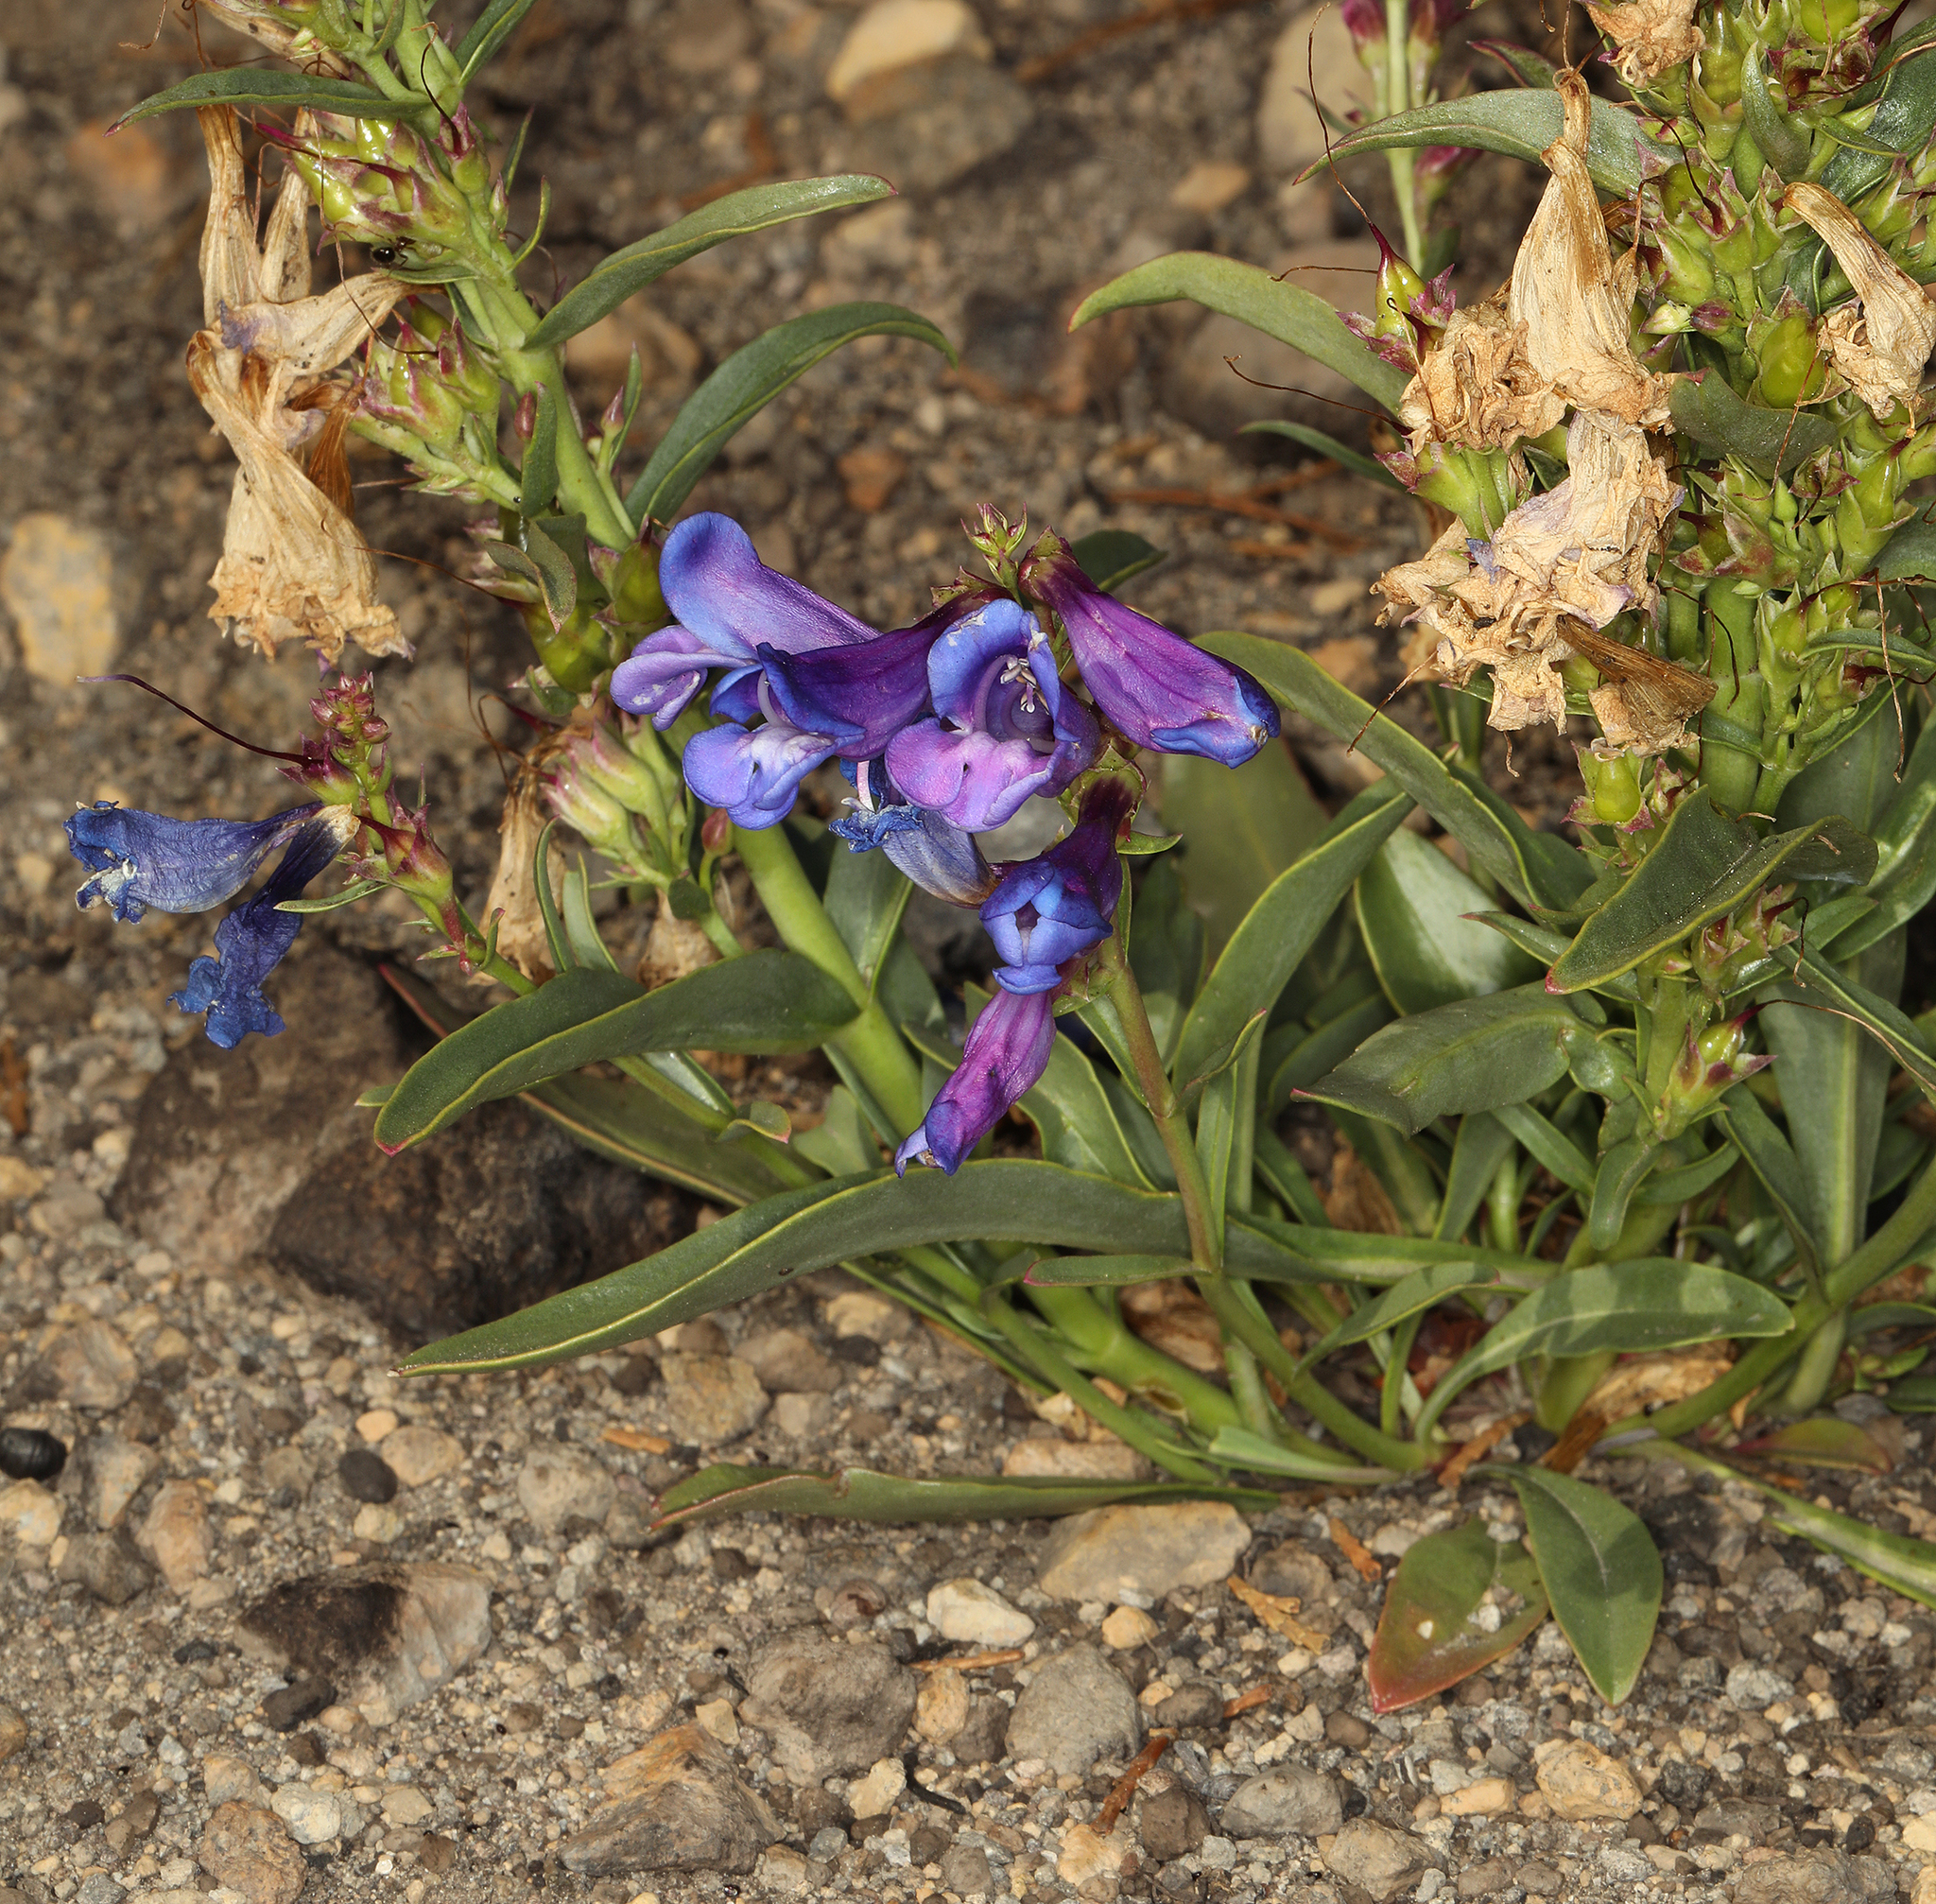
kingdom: Plantae
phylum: Tracheophyta
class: Magnoliopsida
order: Lamiales
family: Plantaginaceae
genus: Penstemon
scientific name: Penstemon speciosus
